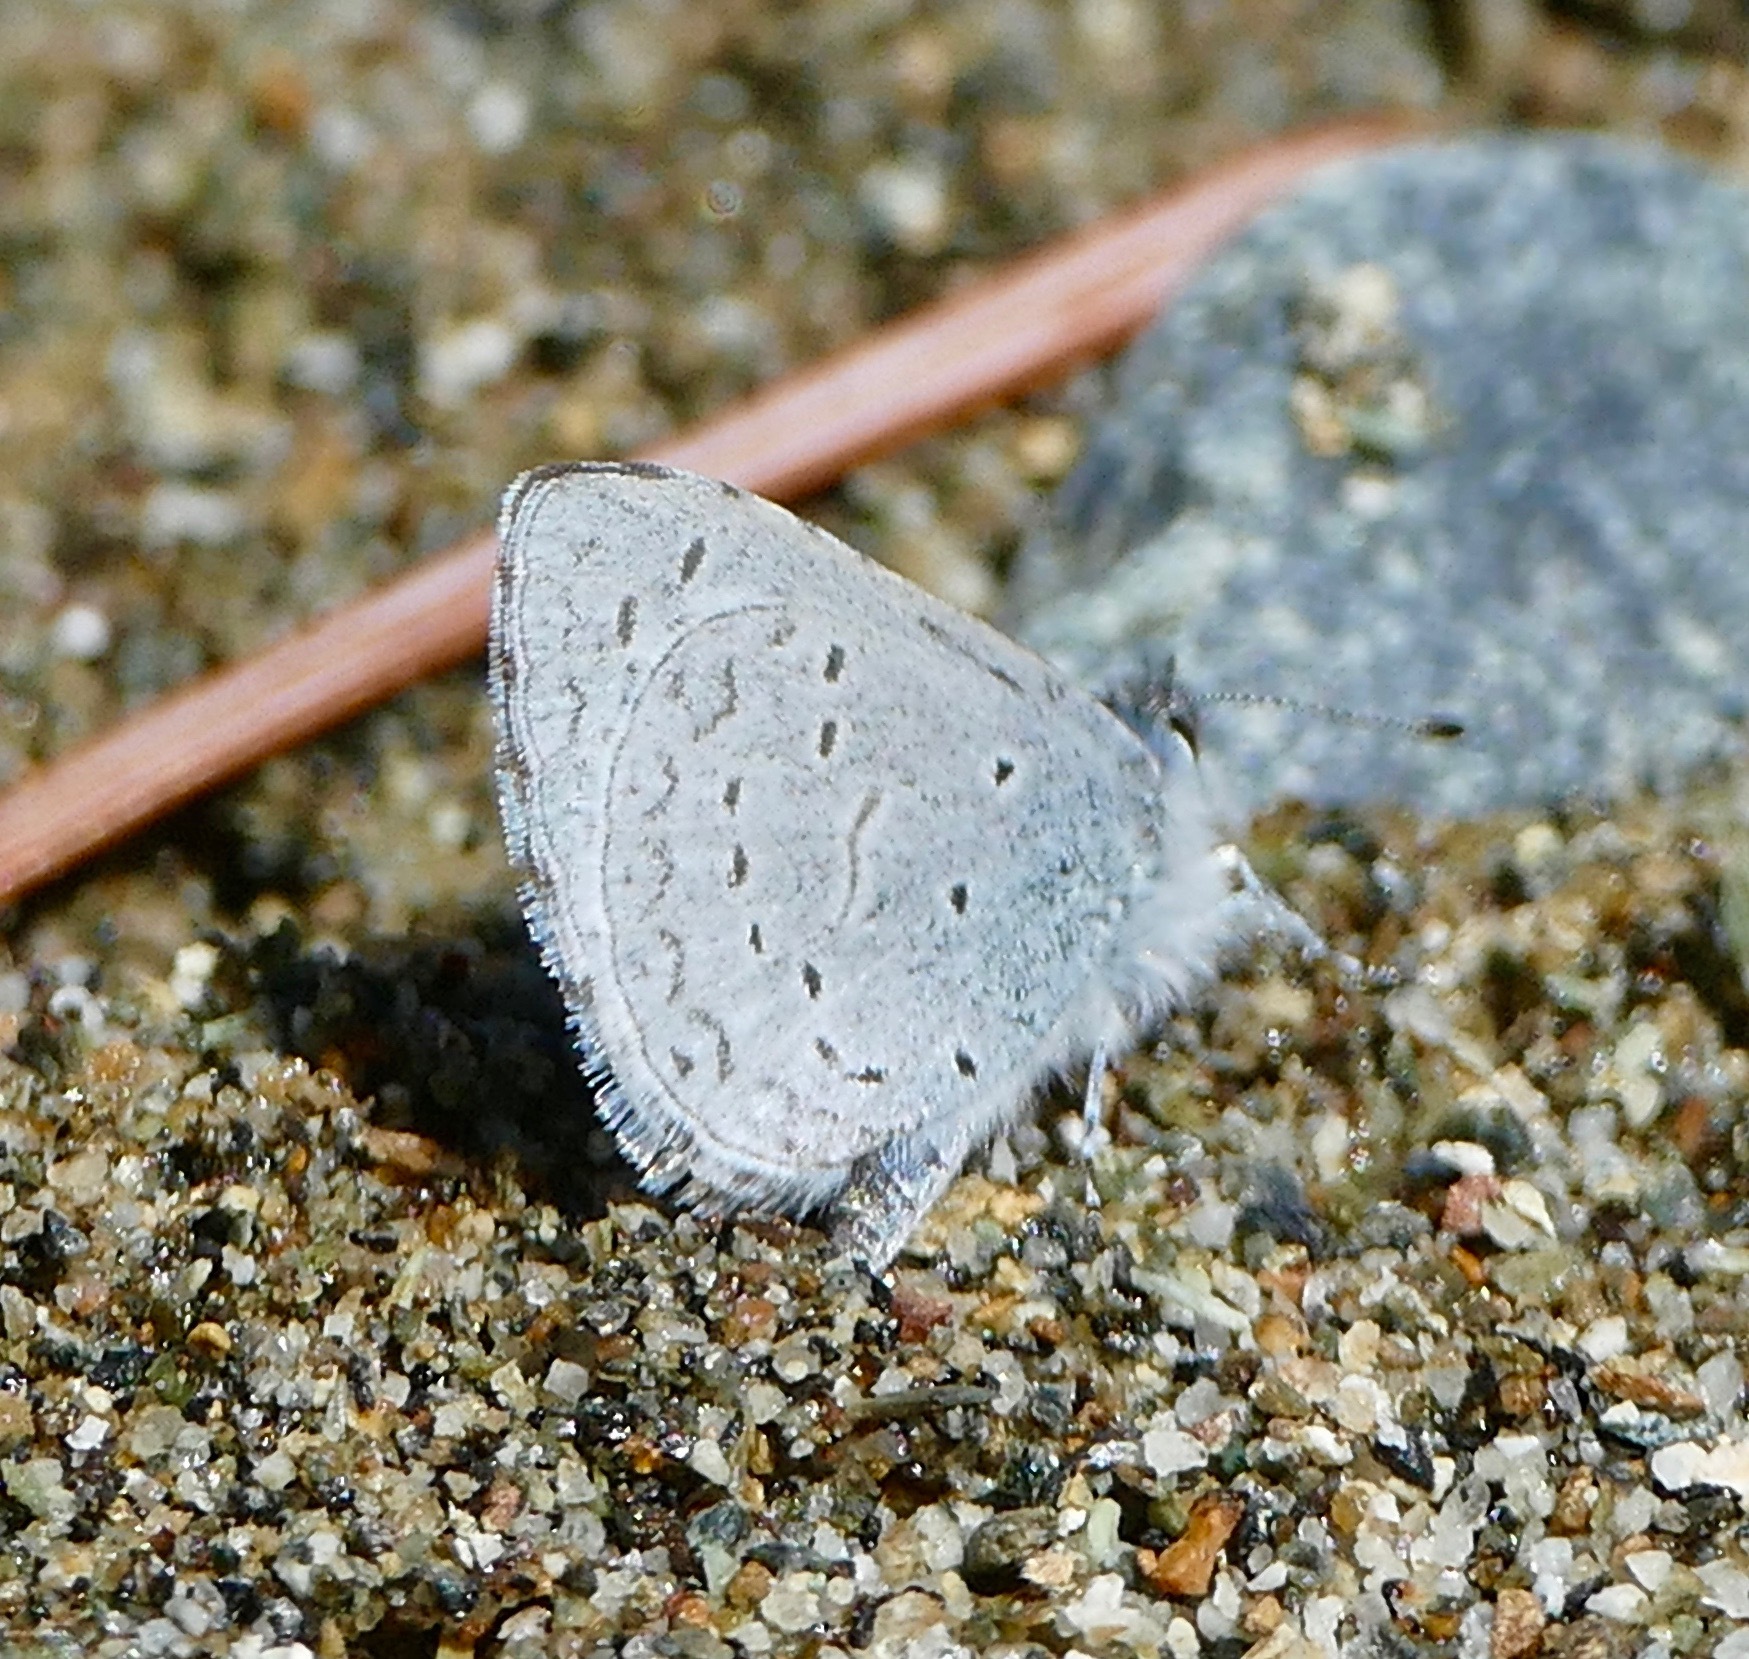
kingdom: Animalia
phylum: Arthropoda
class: Insecta
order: Lepidoptera
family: Lycaenidae
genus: Celastrina
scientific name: Celastrina ladon
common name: Spring azure
